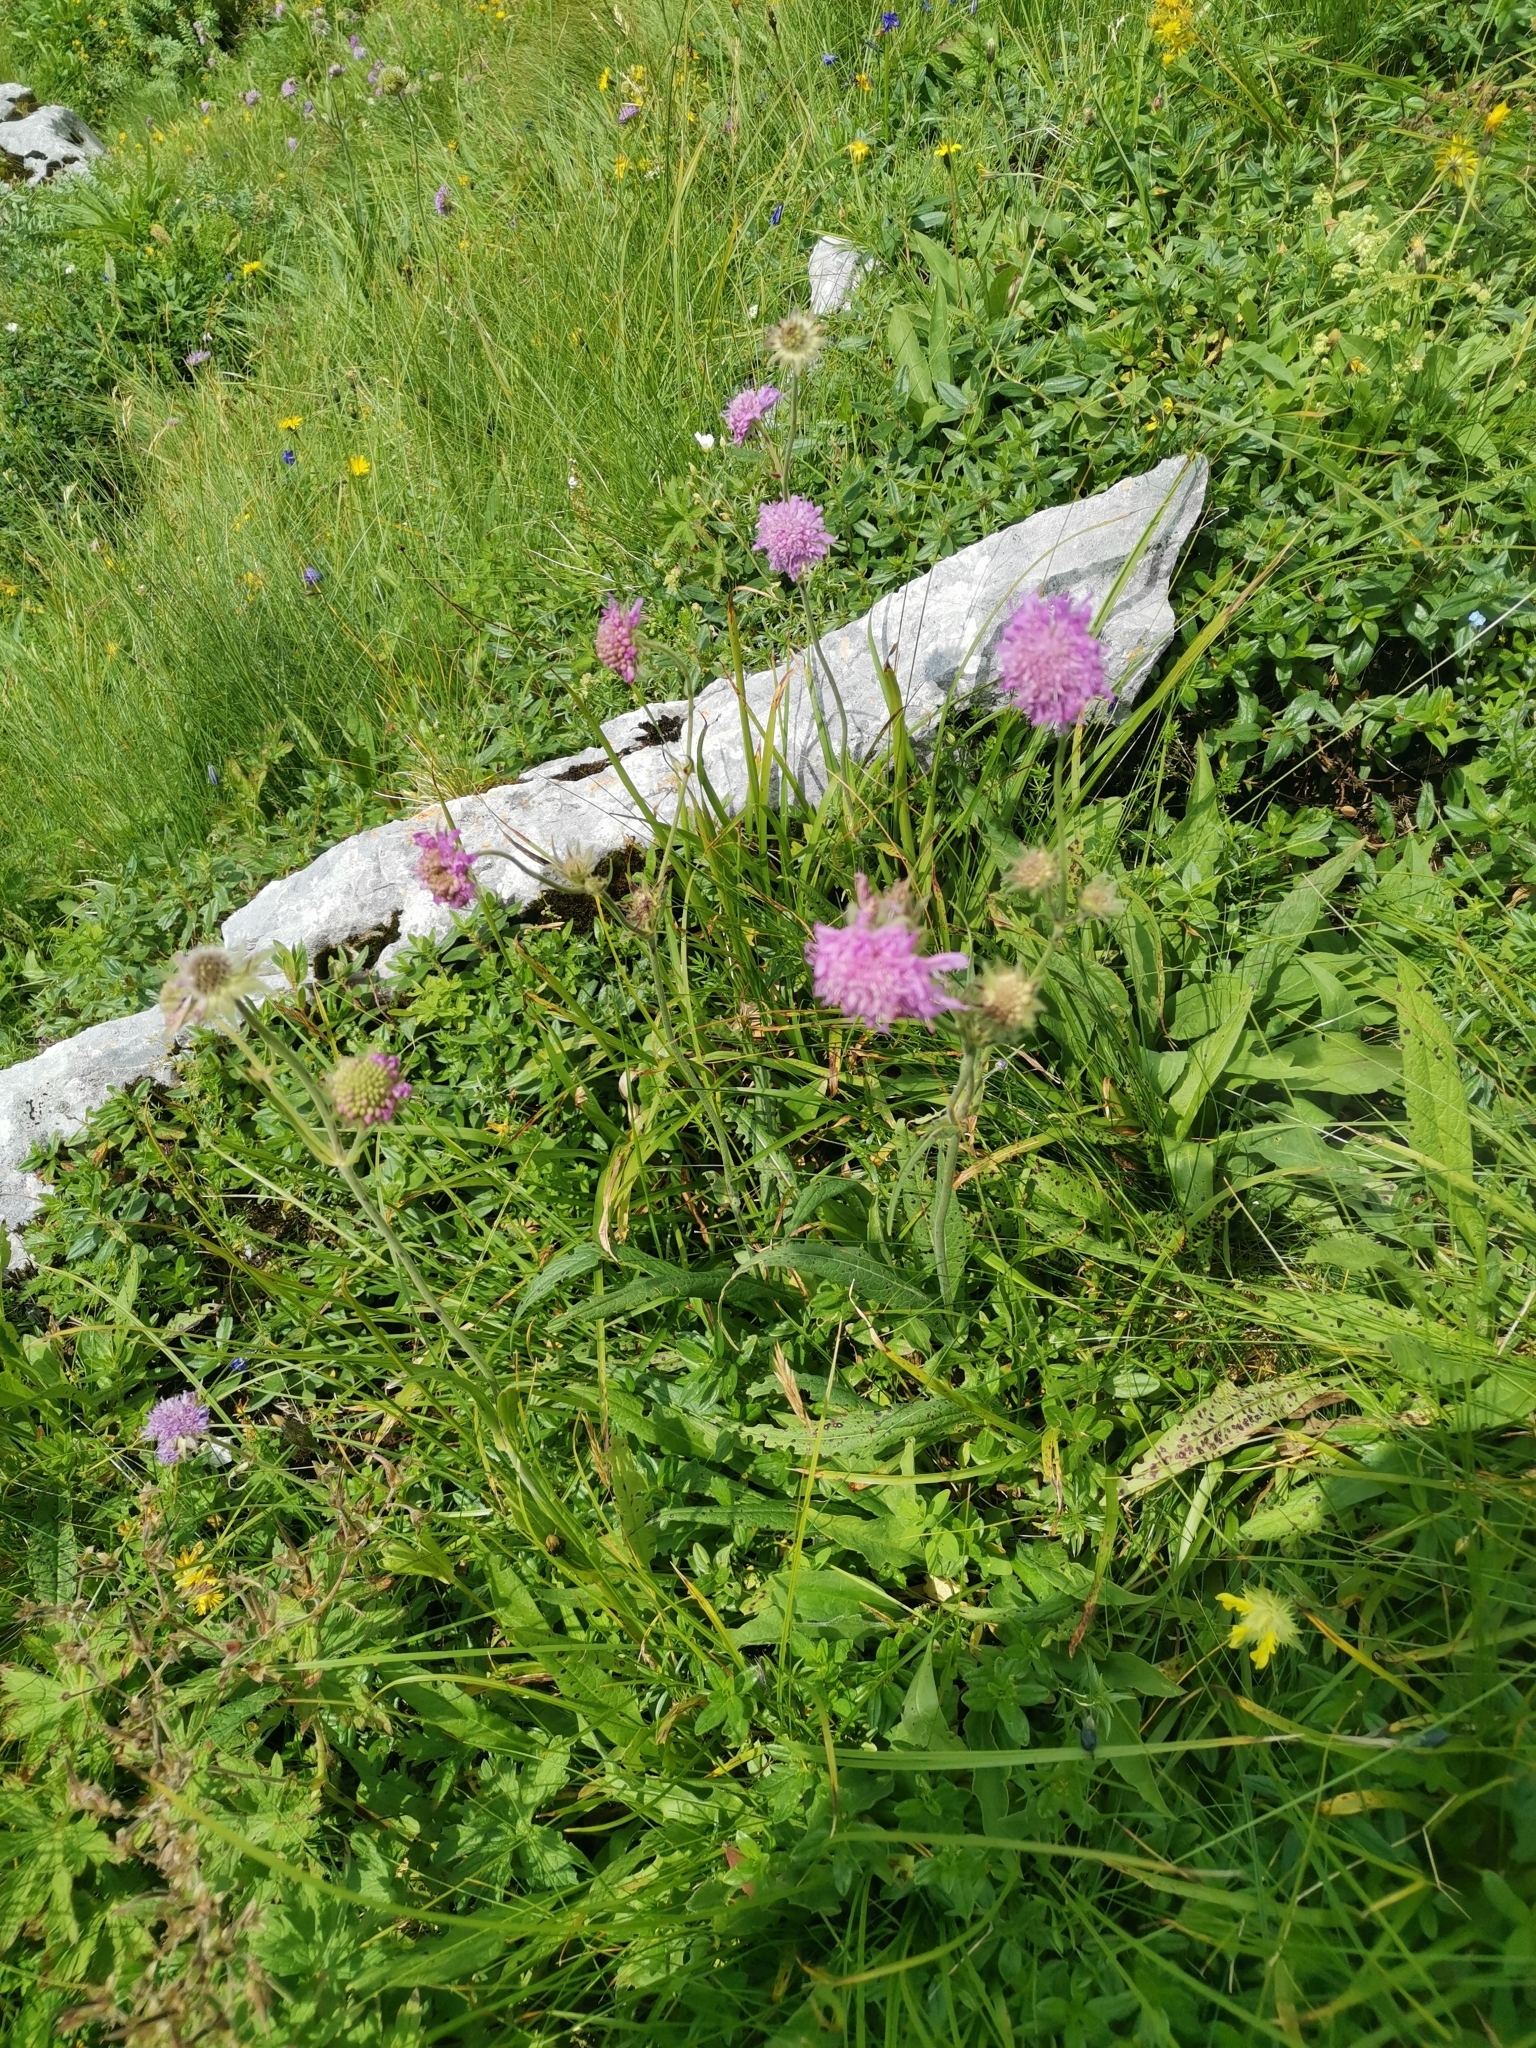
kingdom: Plantae
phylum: Tracheophyta
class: Magnoliopsida
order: Dipsacales
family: Caprifoliaceae
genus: Knautia
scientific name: Knautia longifolia
